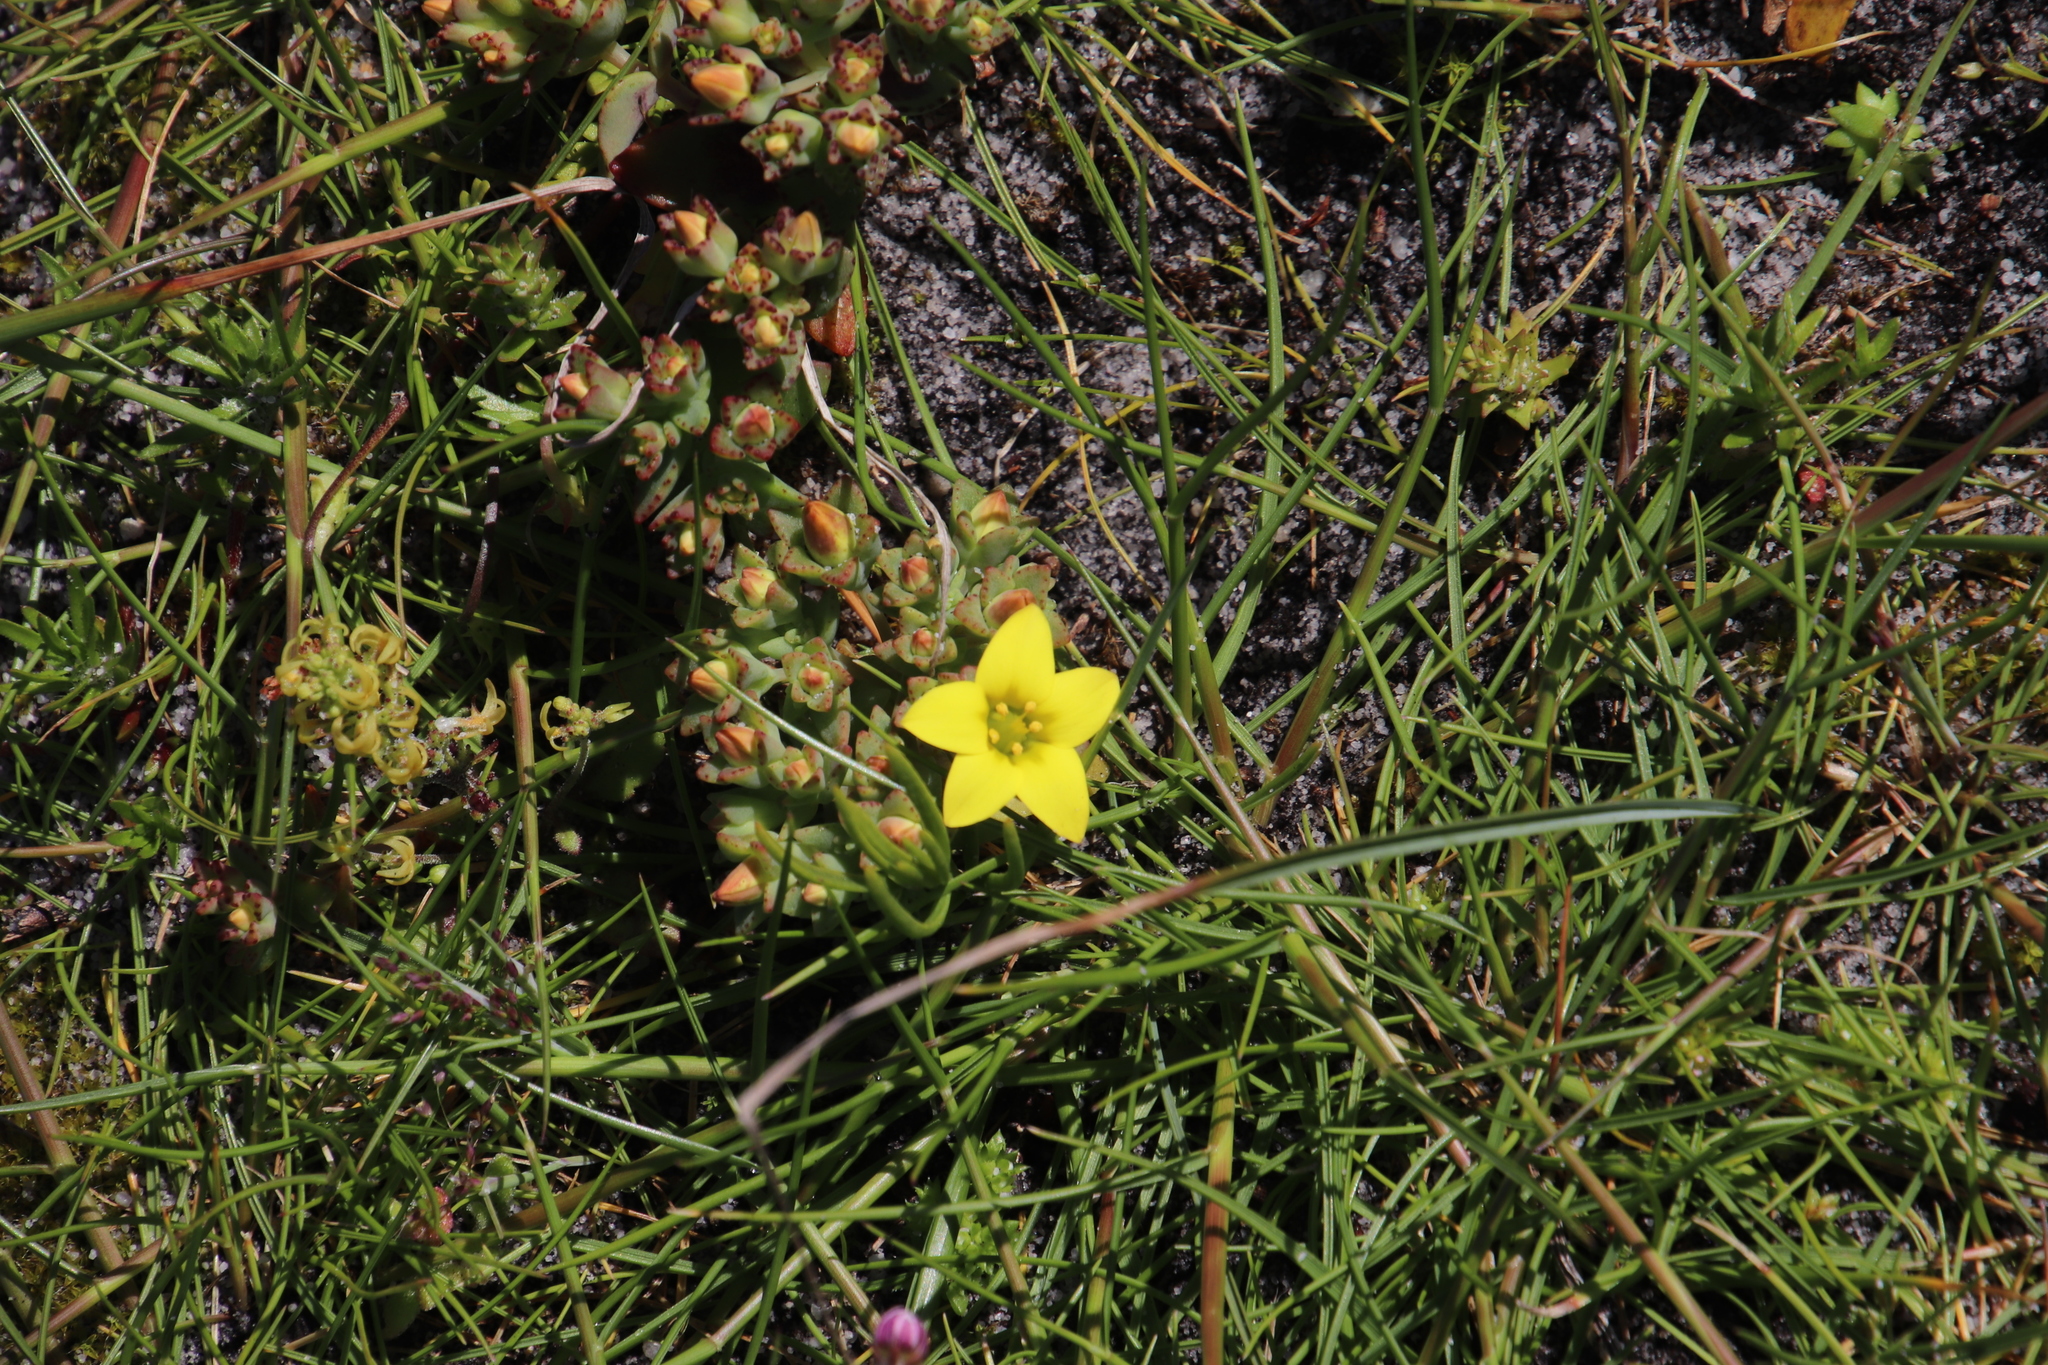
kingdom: Plantae
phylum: Tracheophyta
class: Magnoliopsida
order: Saxifragales
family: Crassulaceae
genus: Crassula
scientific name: Crassula dichotoma
